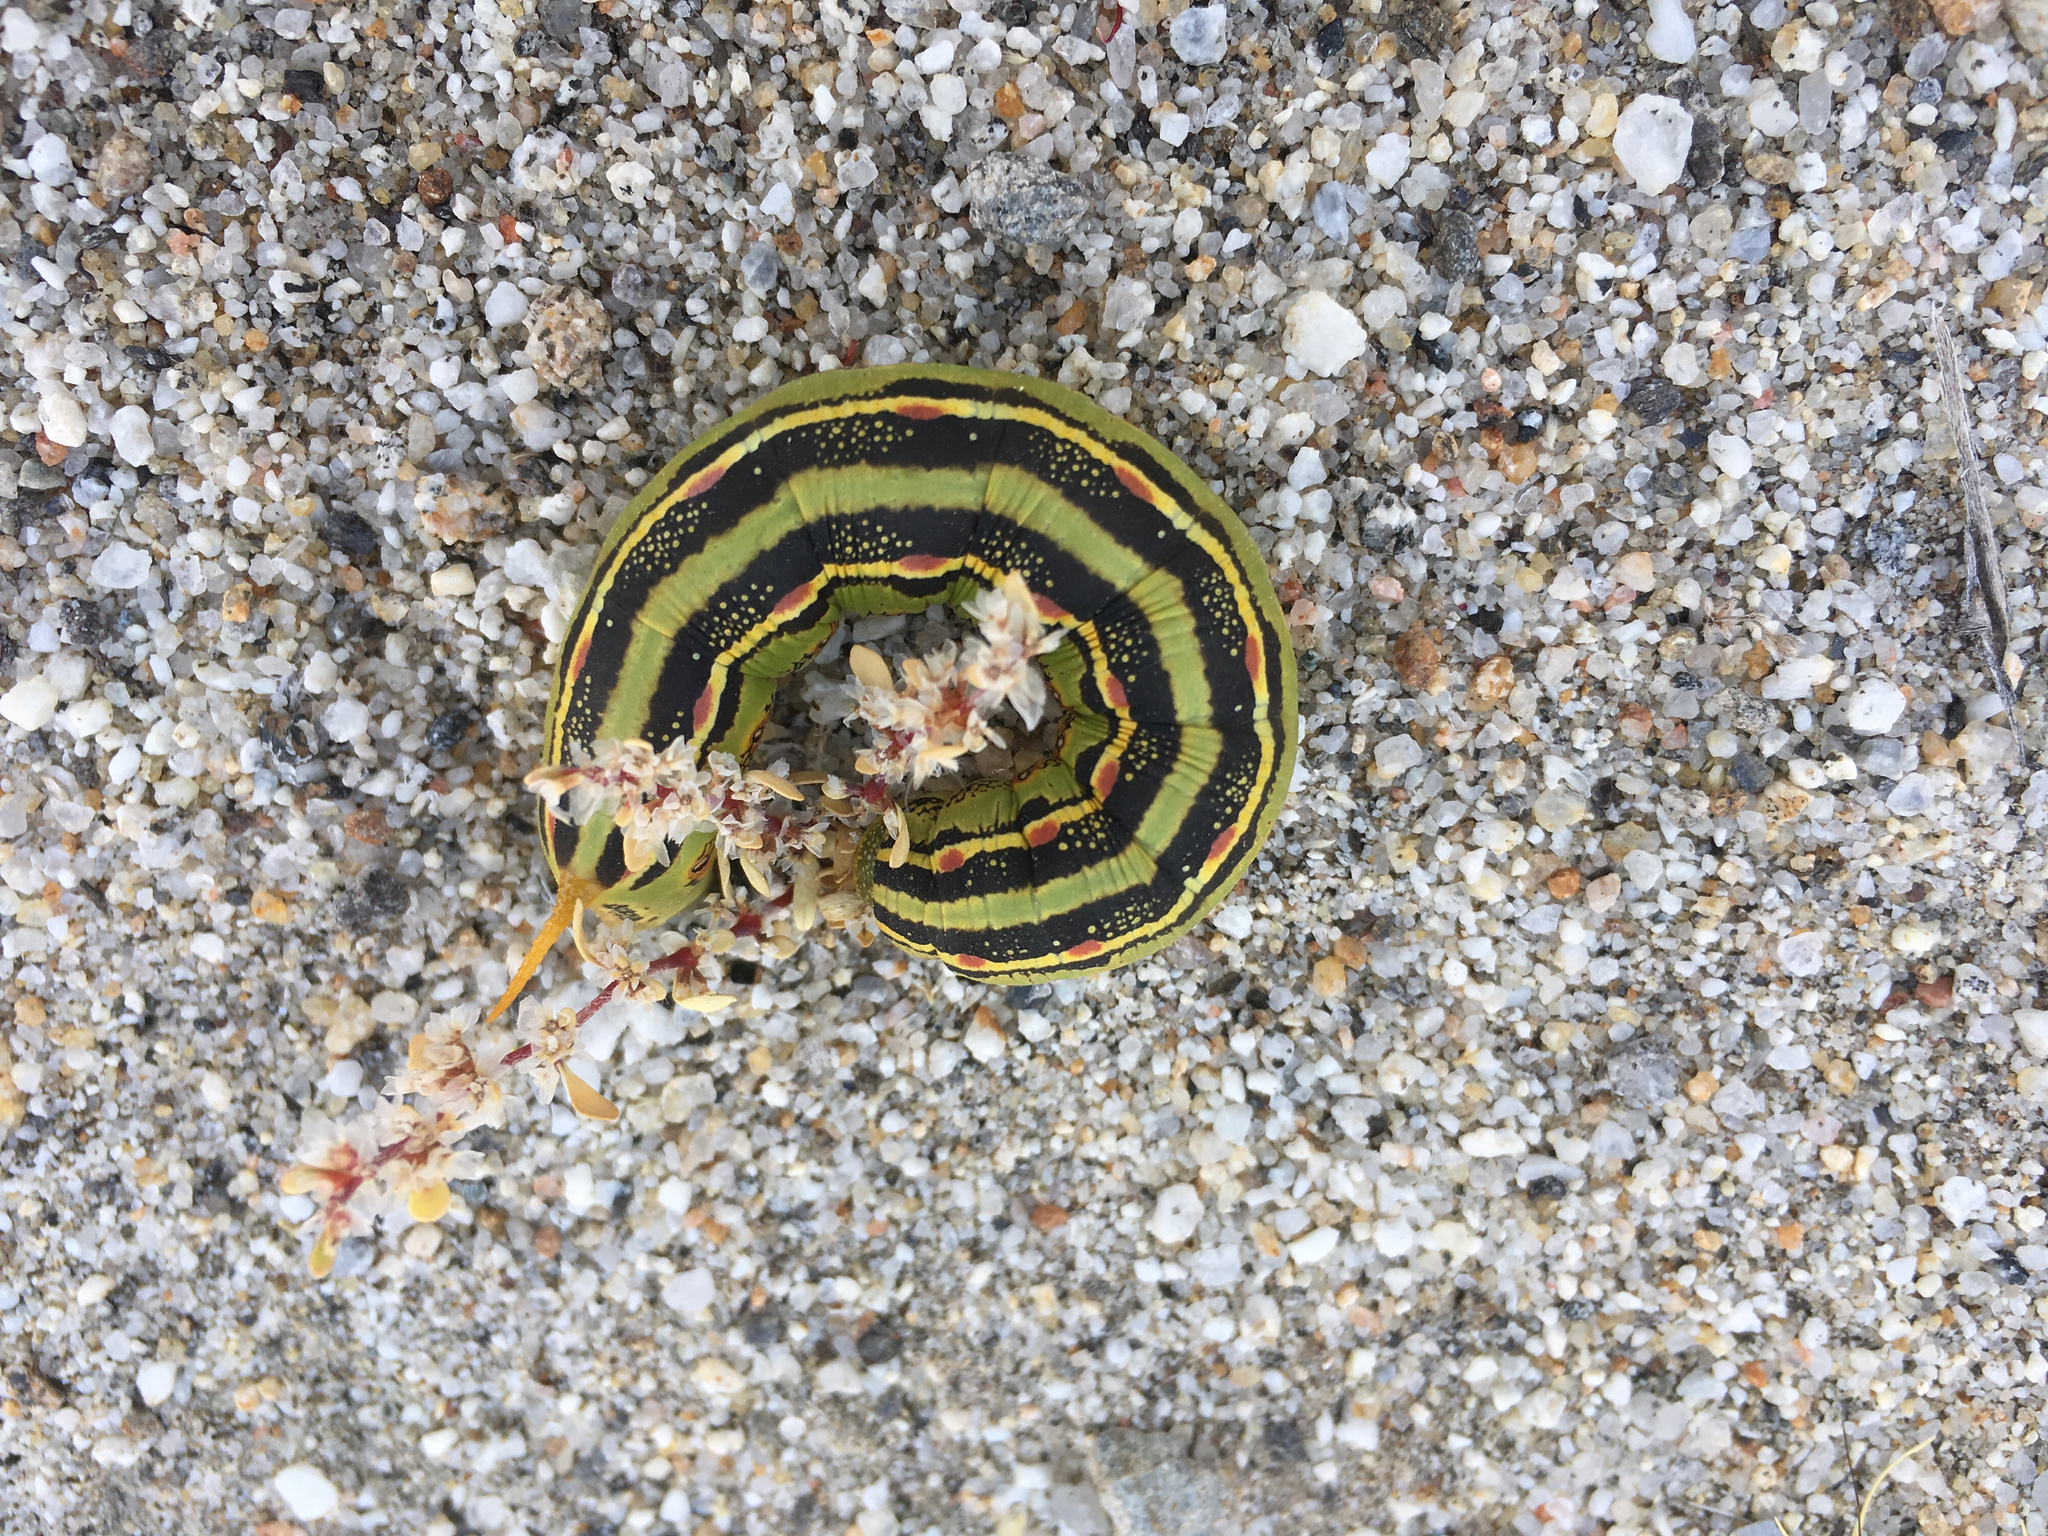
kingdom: Animalia
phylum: Arthropoda
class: Insecta
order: Lepidoptera
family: Sphingidae
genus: Hyles
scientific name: Hyles lineata
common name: White-lined sphinx
